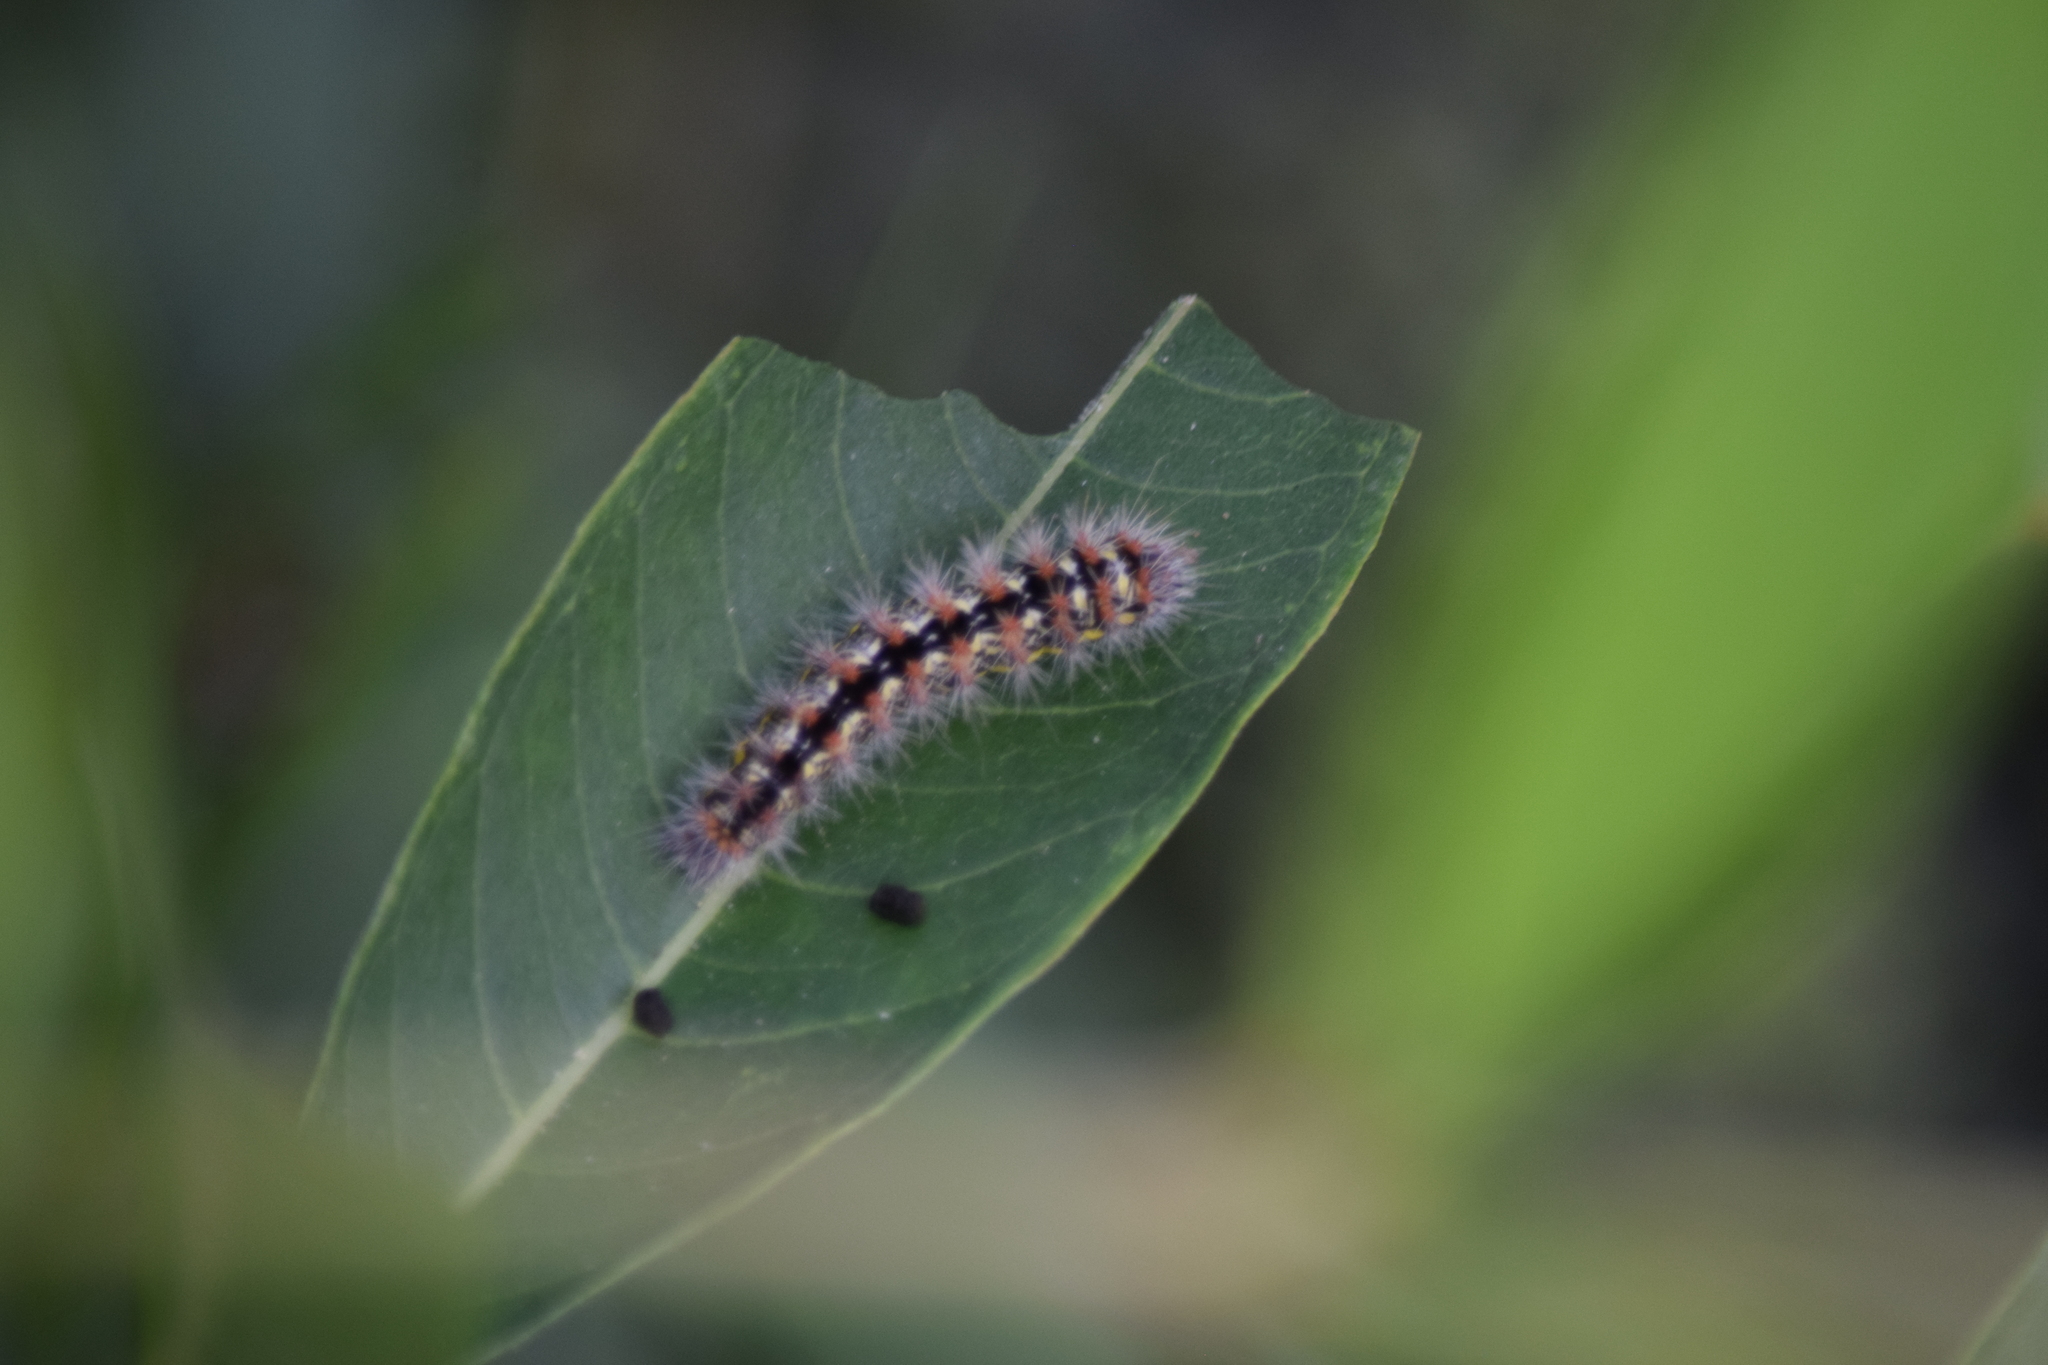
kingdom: Animalia
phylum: Arthropoda
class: Insecta
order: Lepidoptera
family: Noctuidae
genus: Acronicta
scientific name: Acronicta oblinita
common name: Smeared dagger
